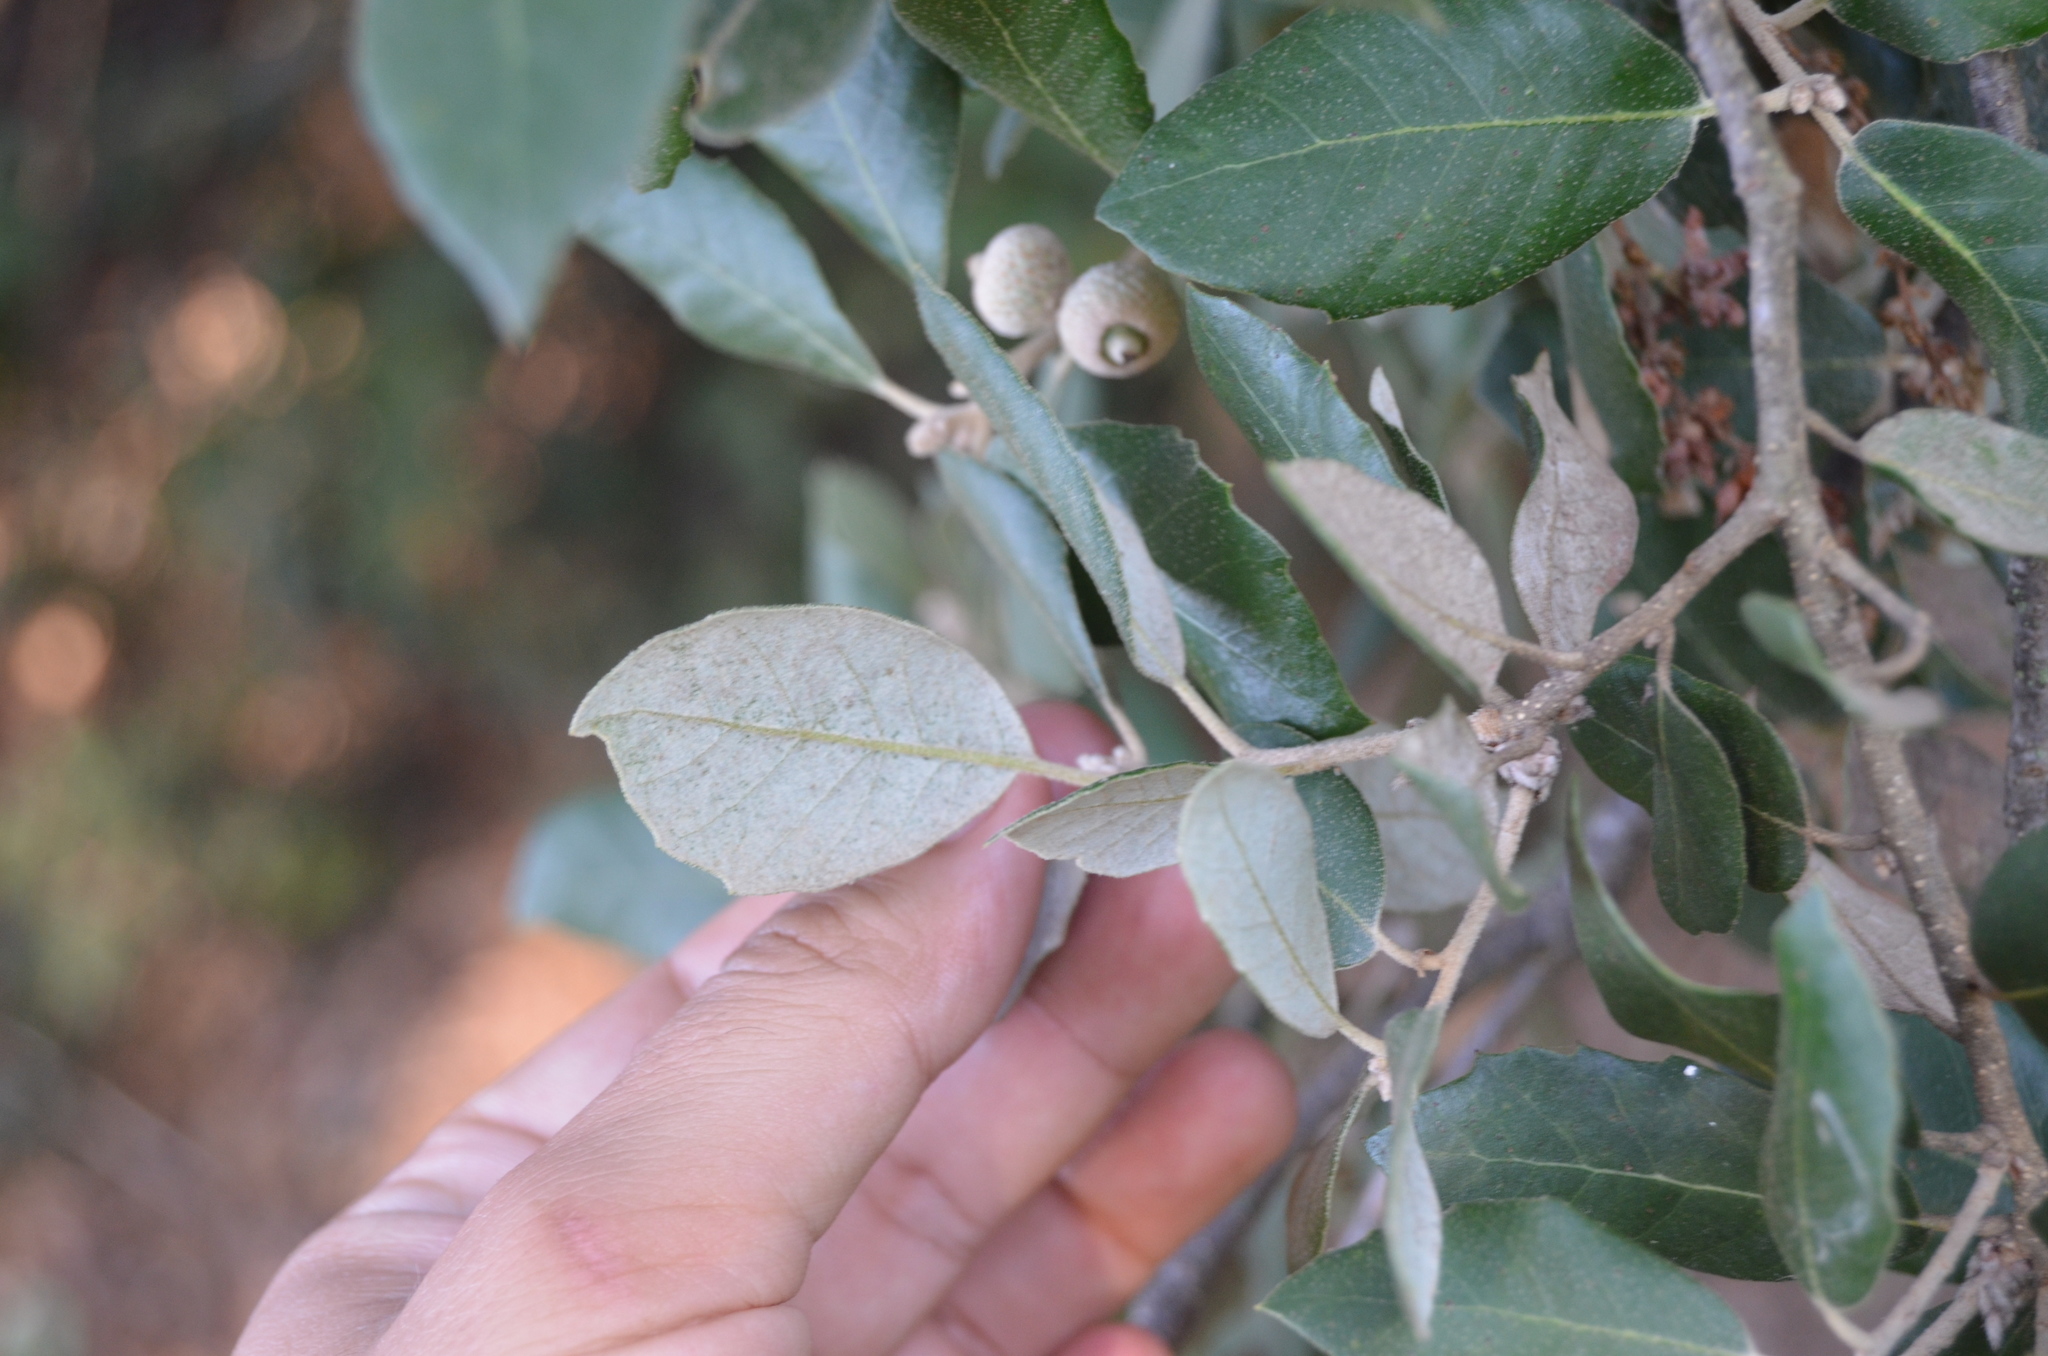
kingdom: Plantae
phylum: Tracheophyta
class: Magnoliopsida
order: Fagales
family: Fagaceae
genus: Quercus
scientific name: Quercus ilex
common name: Evergreen oak
